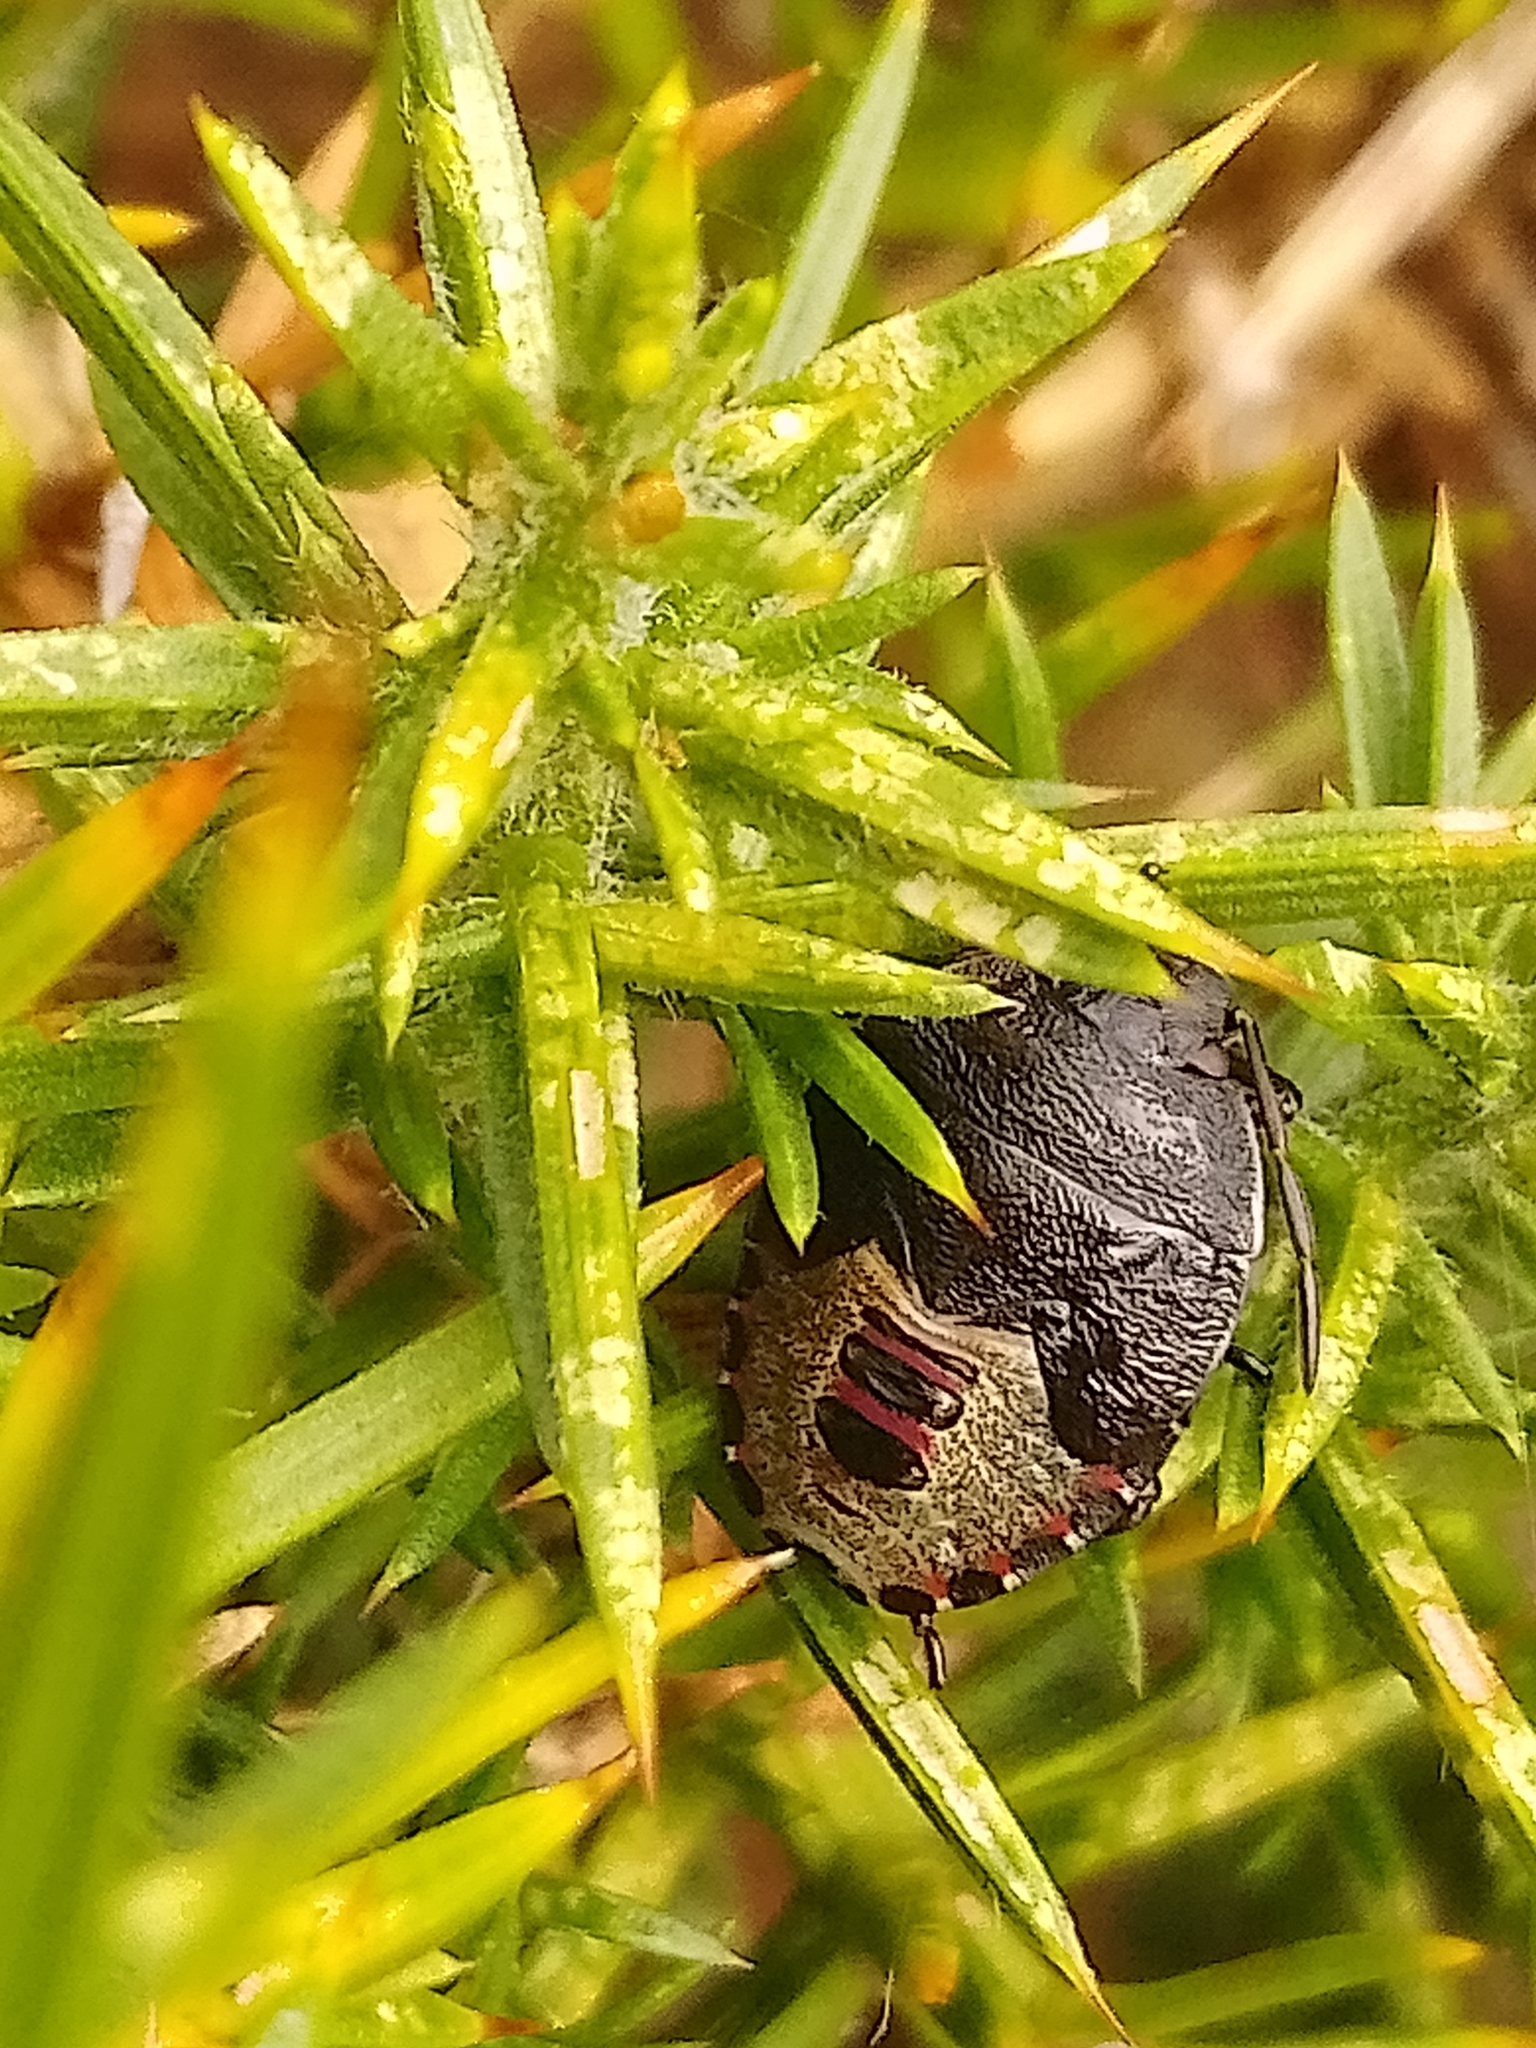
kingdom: Animalia
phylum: Arthropoda
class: Insecta
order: Hemiptera
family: Pentatomidae
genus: Piezodorus
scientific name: Piezodorus lituratus
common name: Stink bug
